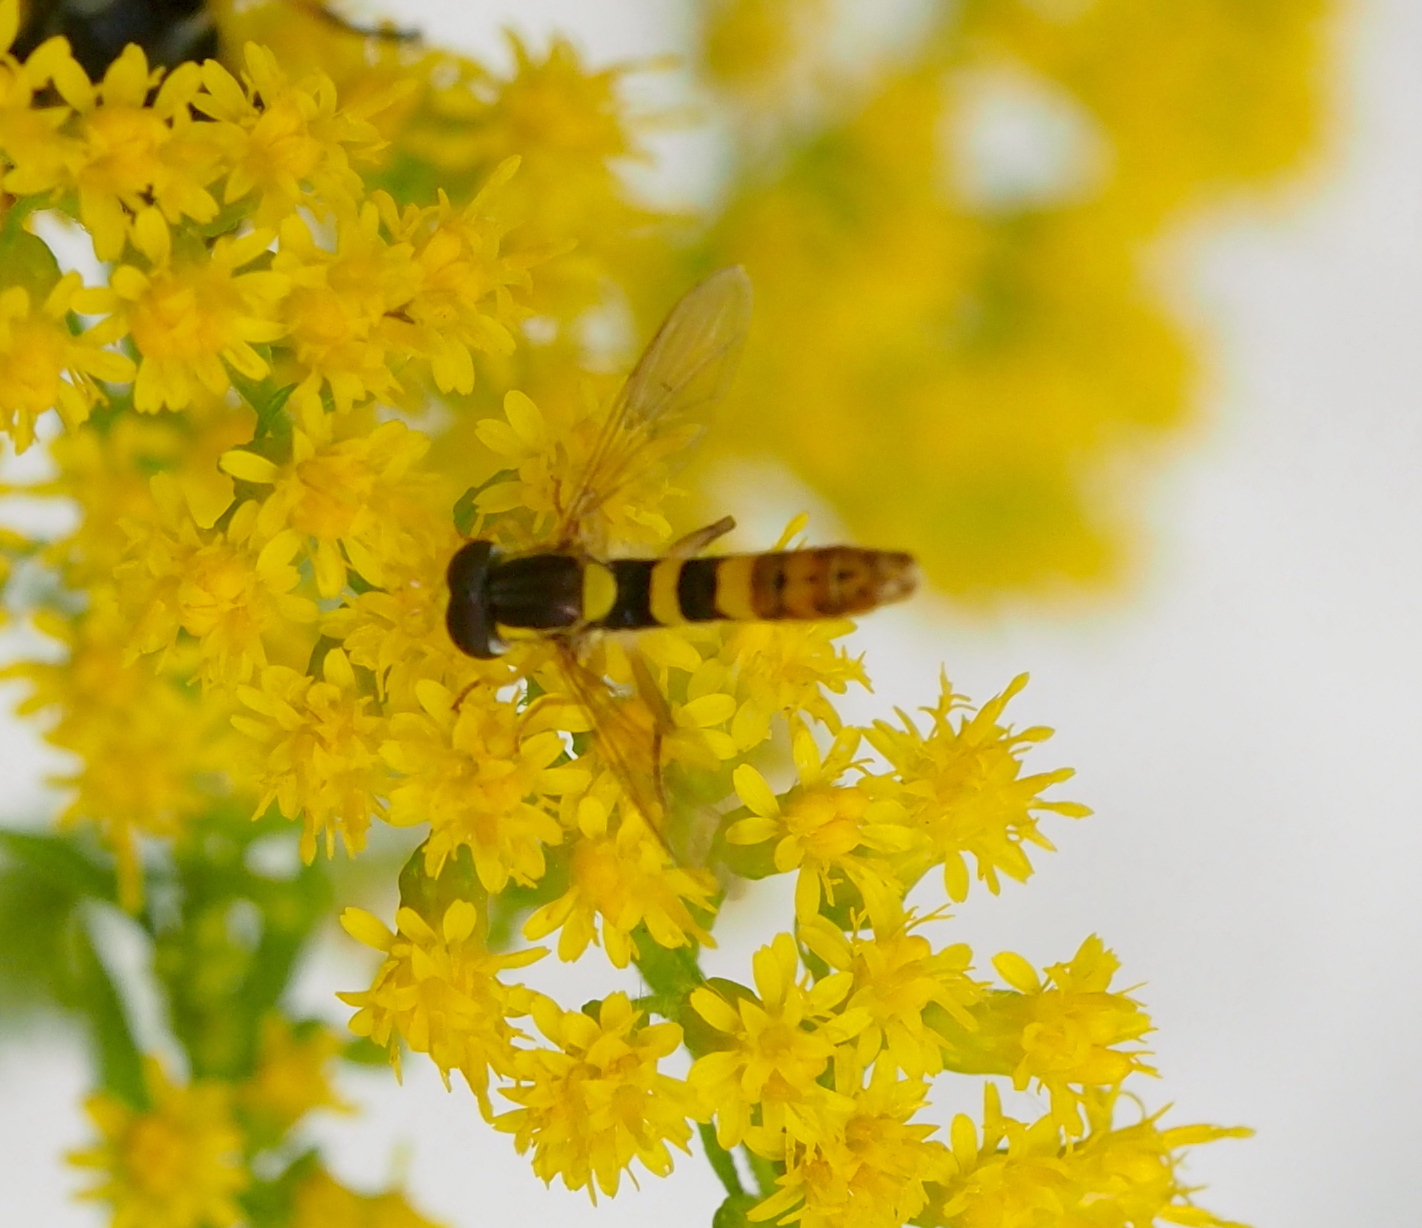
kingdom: Animalia
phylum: Arthropoda
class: Insecta
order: Diptera
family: Syrphidae
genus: Sphaerophoria
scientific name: Sphaerophoria scripta
